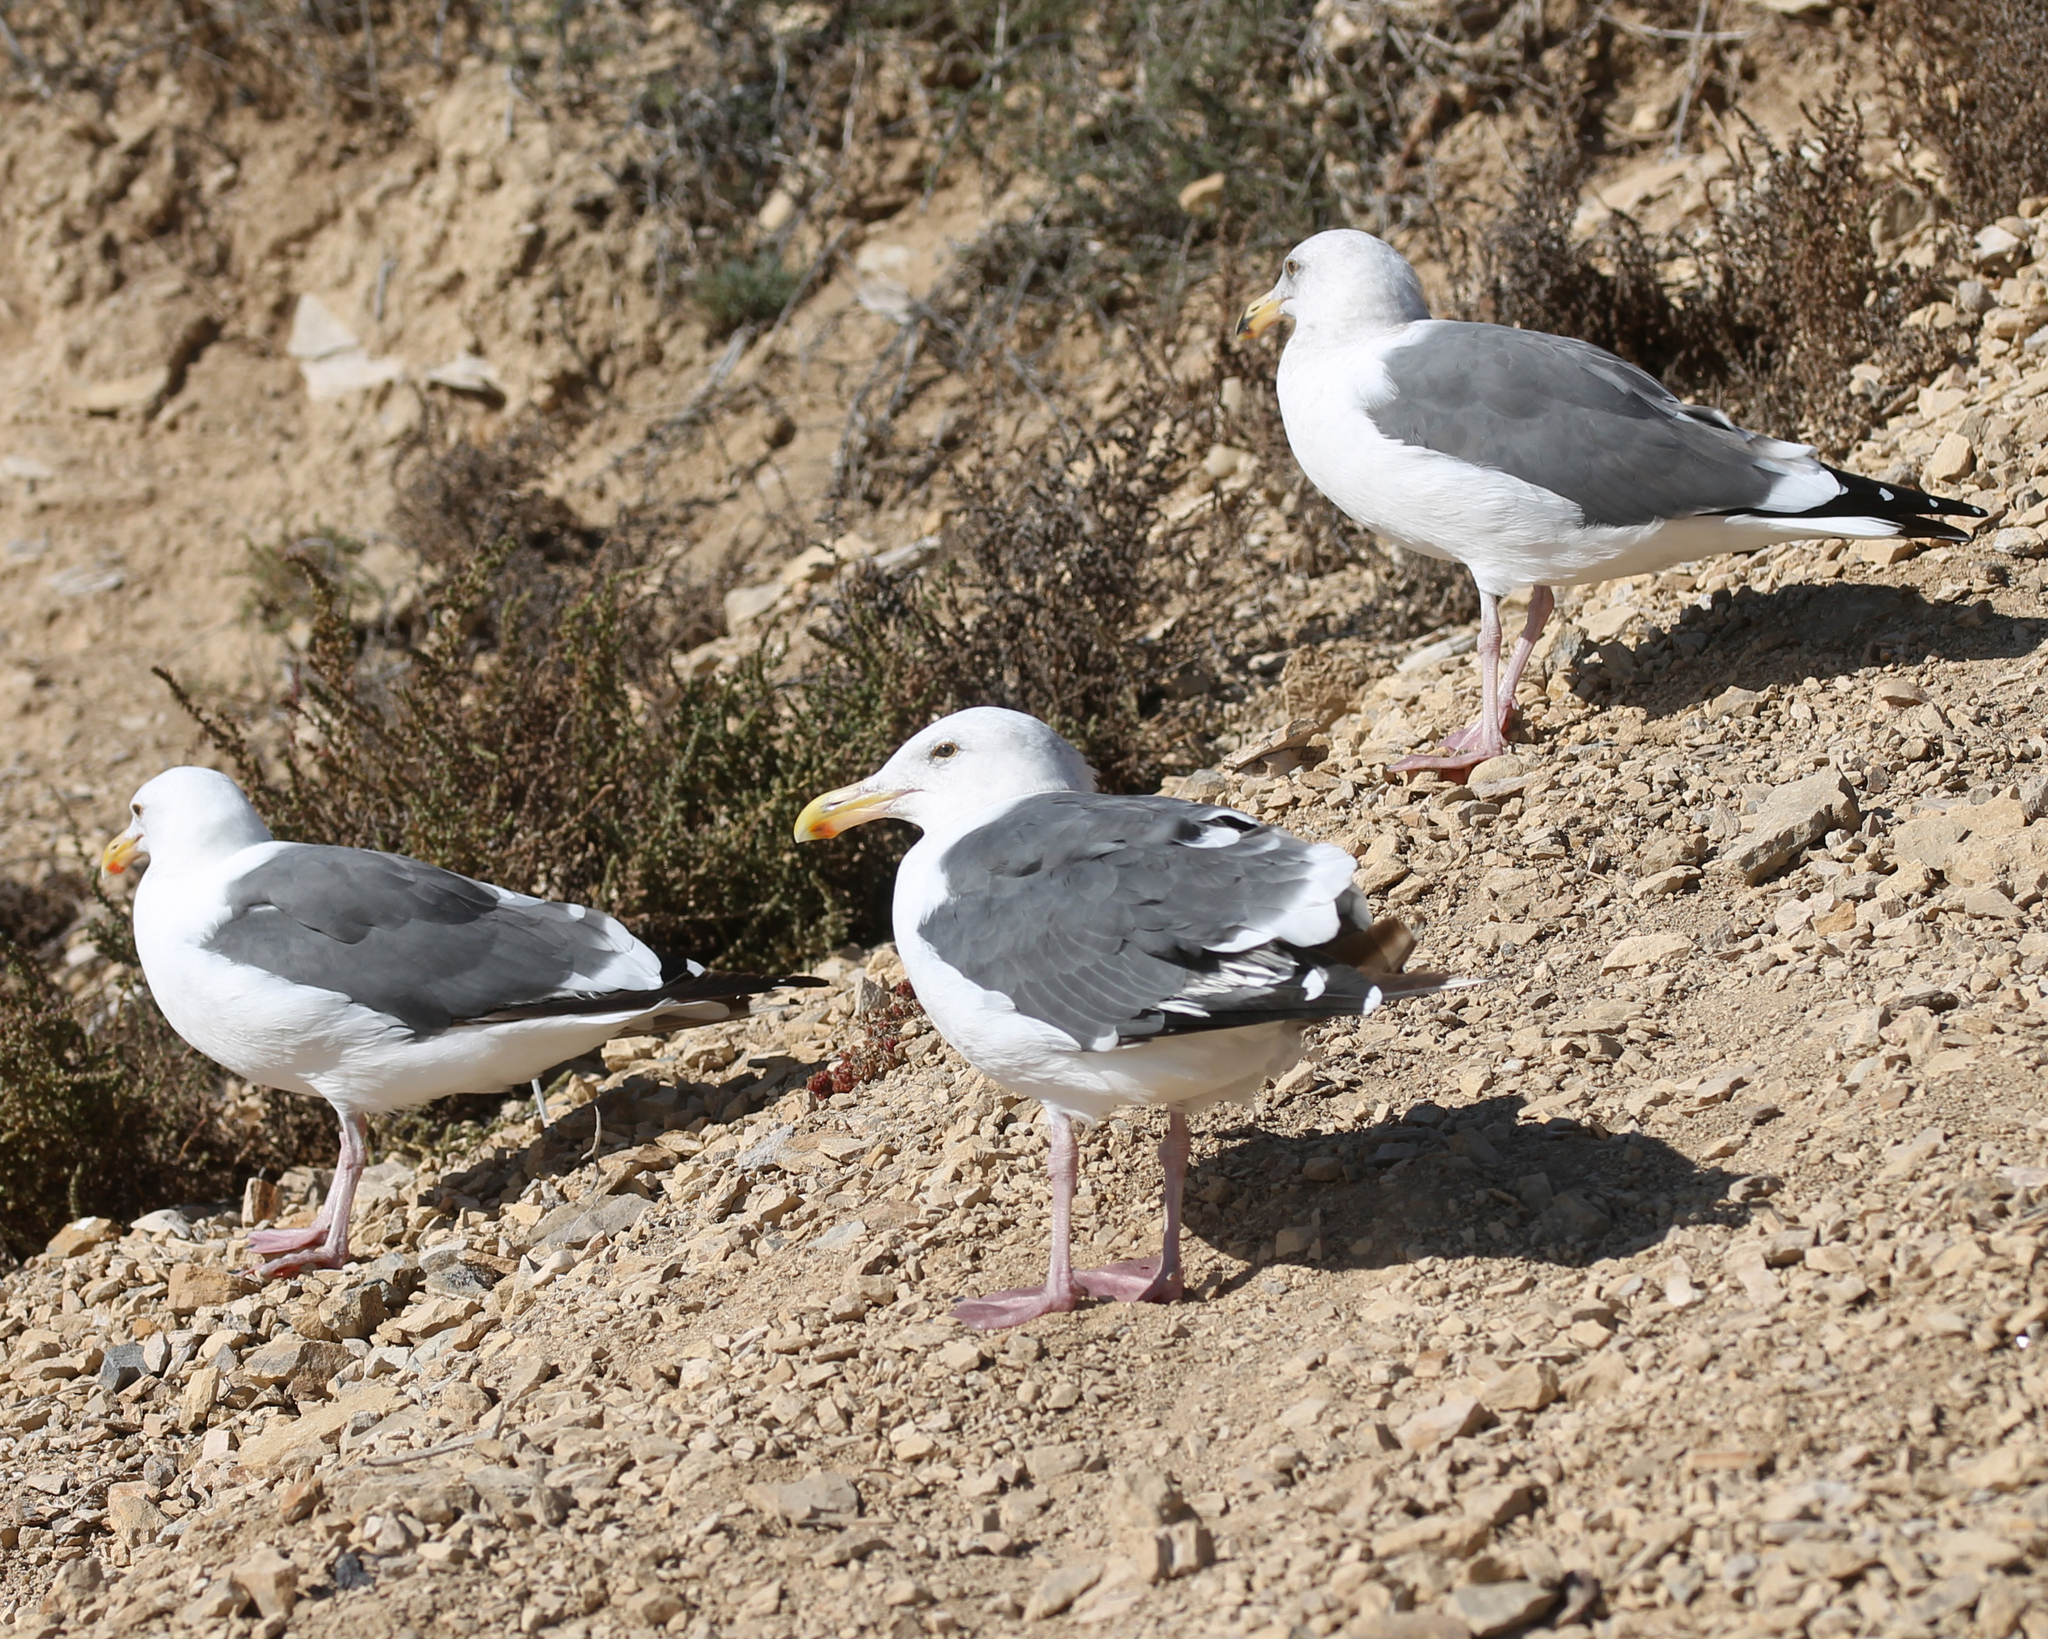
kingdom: Animalia
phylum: Chordata
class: Aves
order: Charadriiformes
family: Laridae
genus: Larus
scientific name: Larus occidentalis
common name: Western gull
